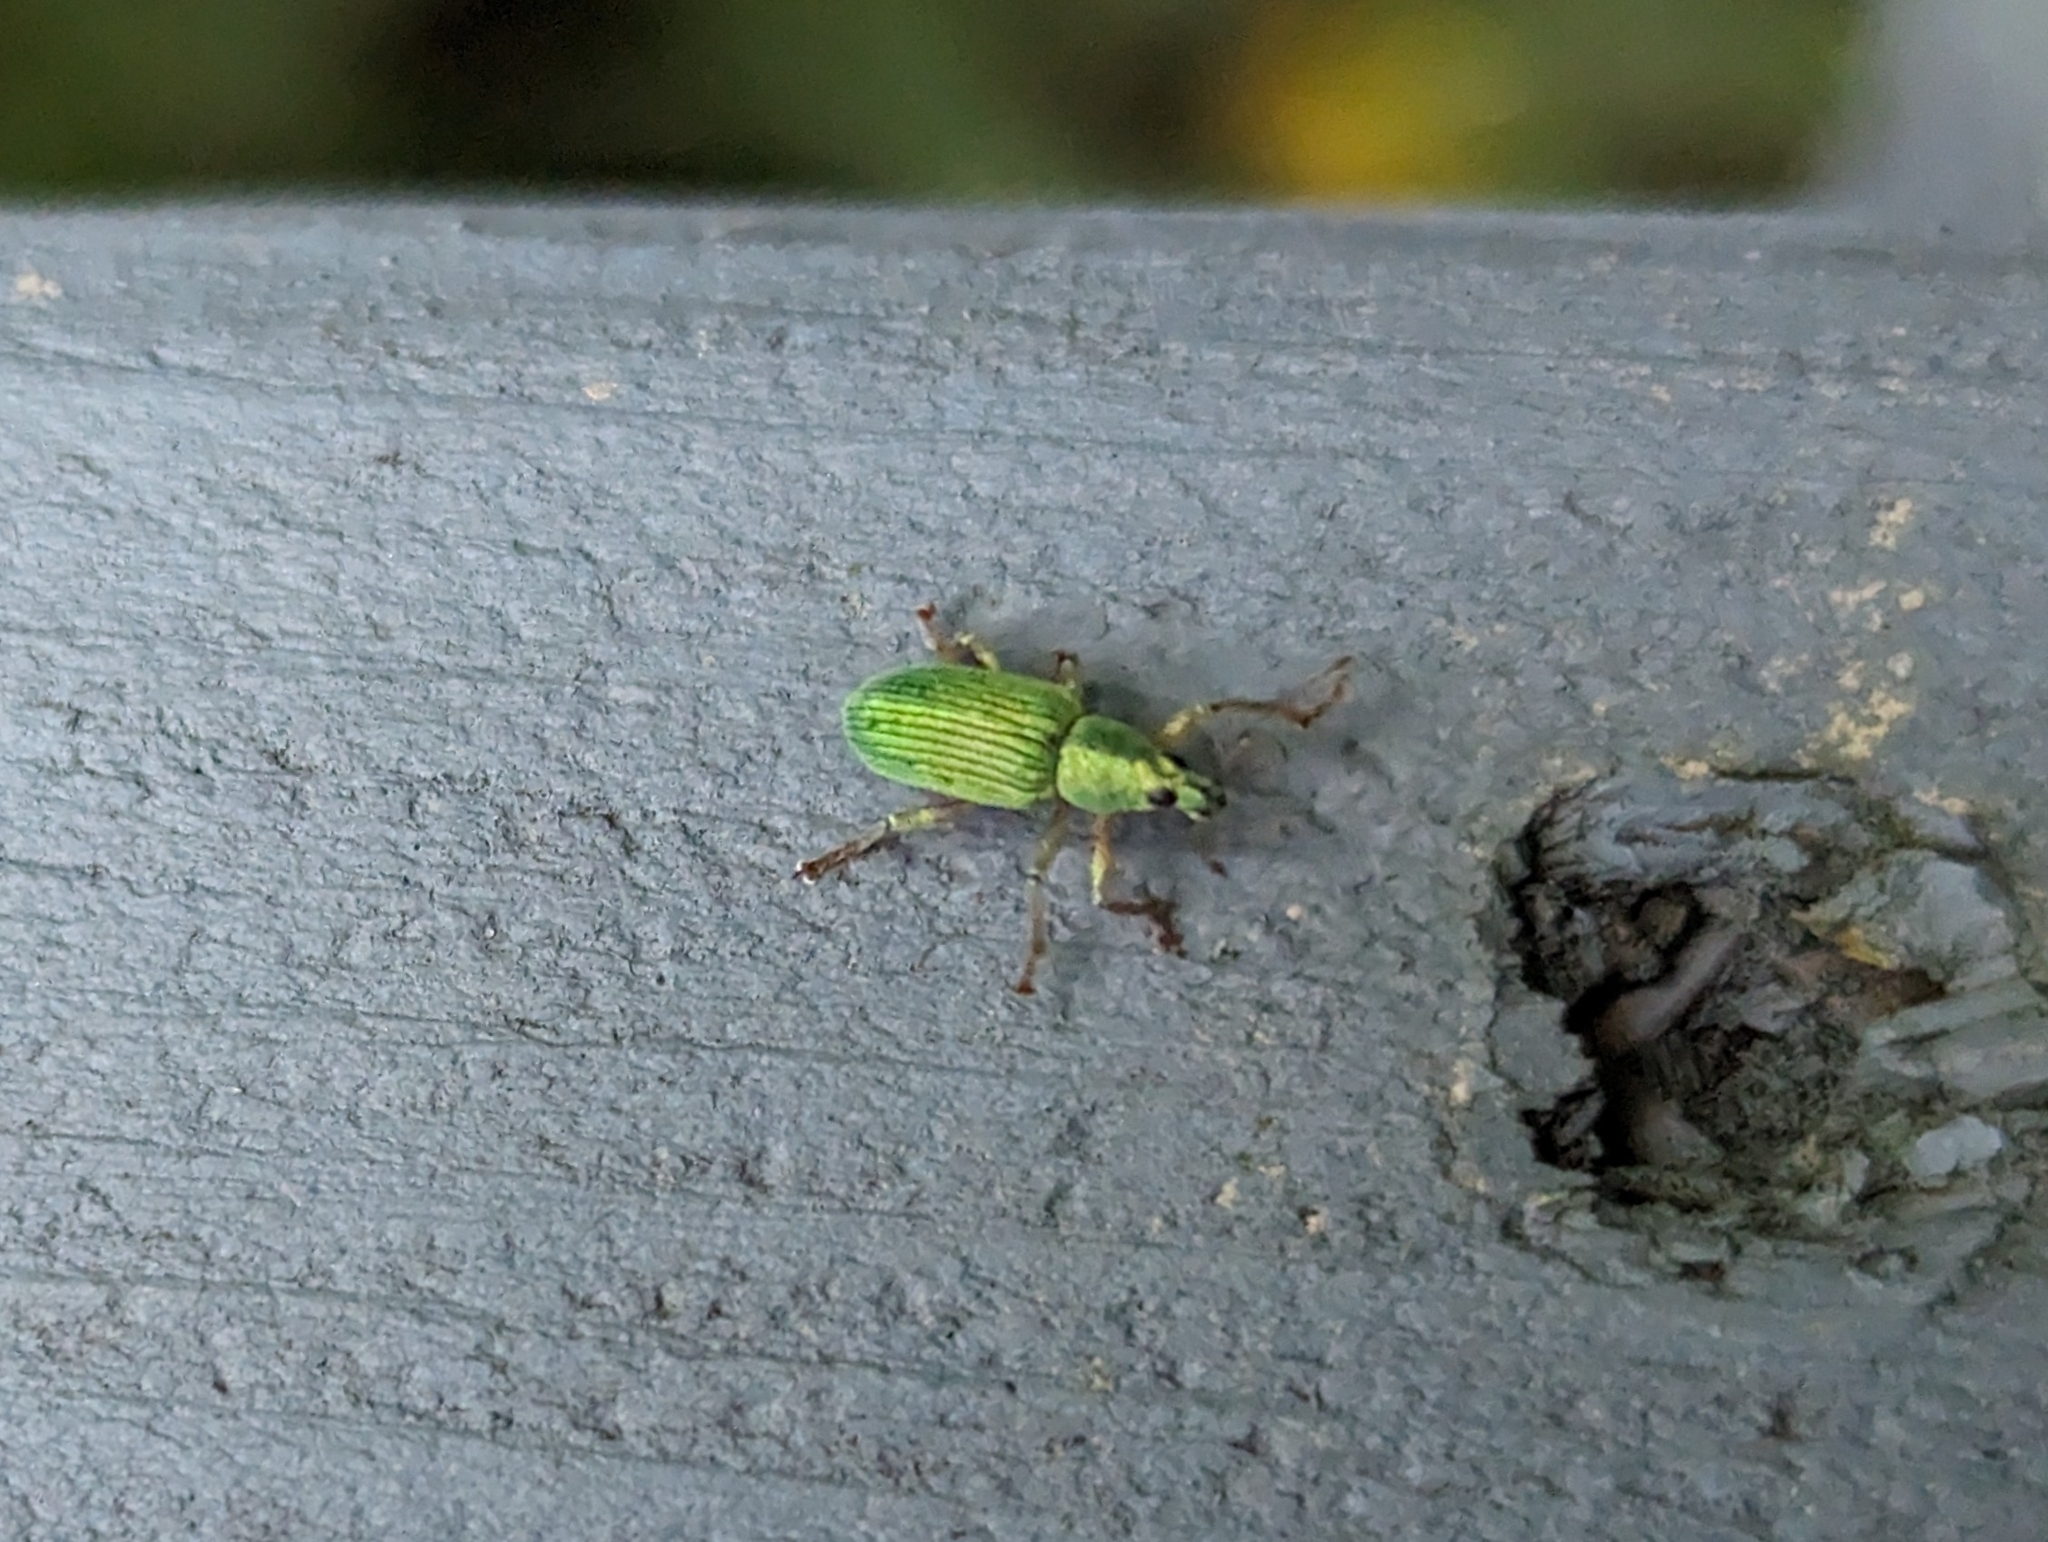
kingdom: Animalia
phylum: Arthropoda
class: Insecta
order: Coleoptera
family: Curculionidae
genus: Polydrusus
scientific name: Polydrusus formosus
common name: Weevil
